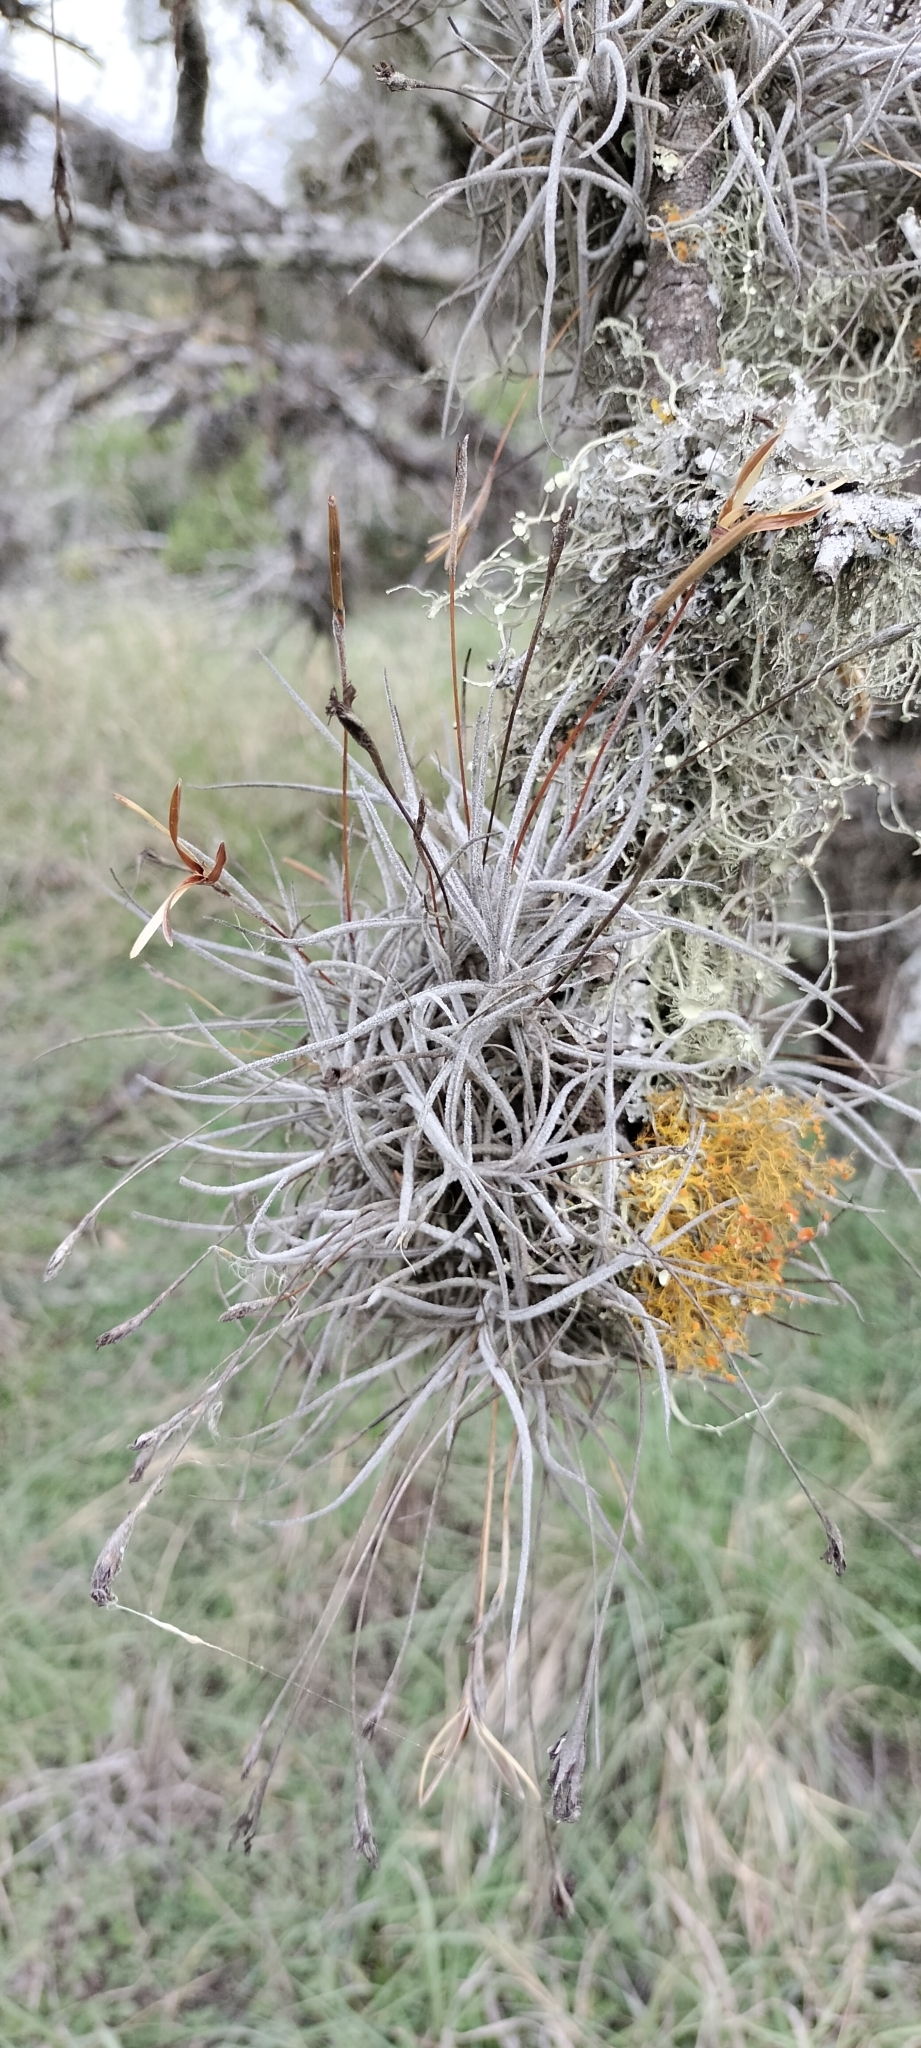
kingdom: Plantae
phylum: Tracheophyta
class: Liliopsida
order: Poales
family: Bromeliaceae
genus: Tillandsia
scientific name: Tillandsia recurvata
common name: Small ballmoss
